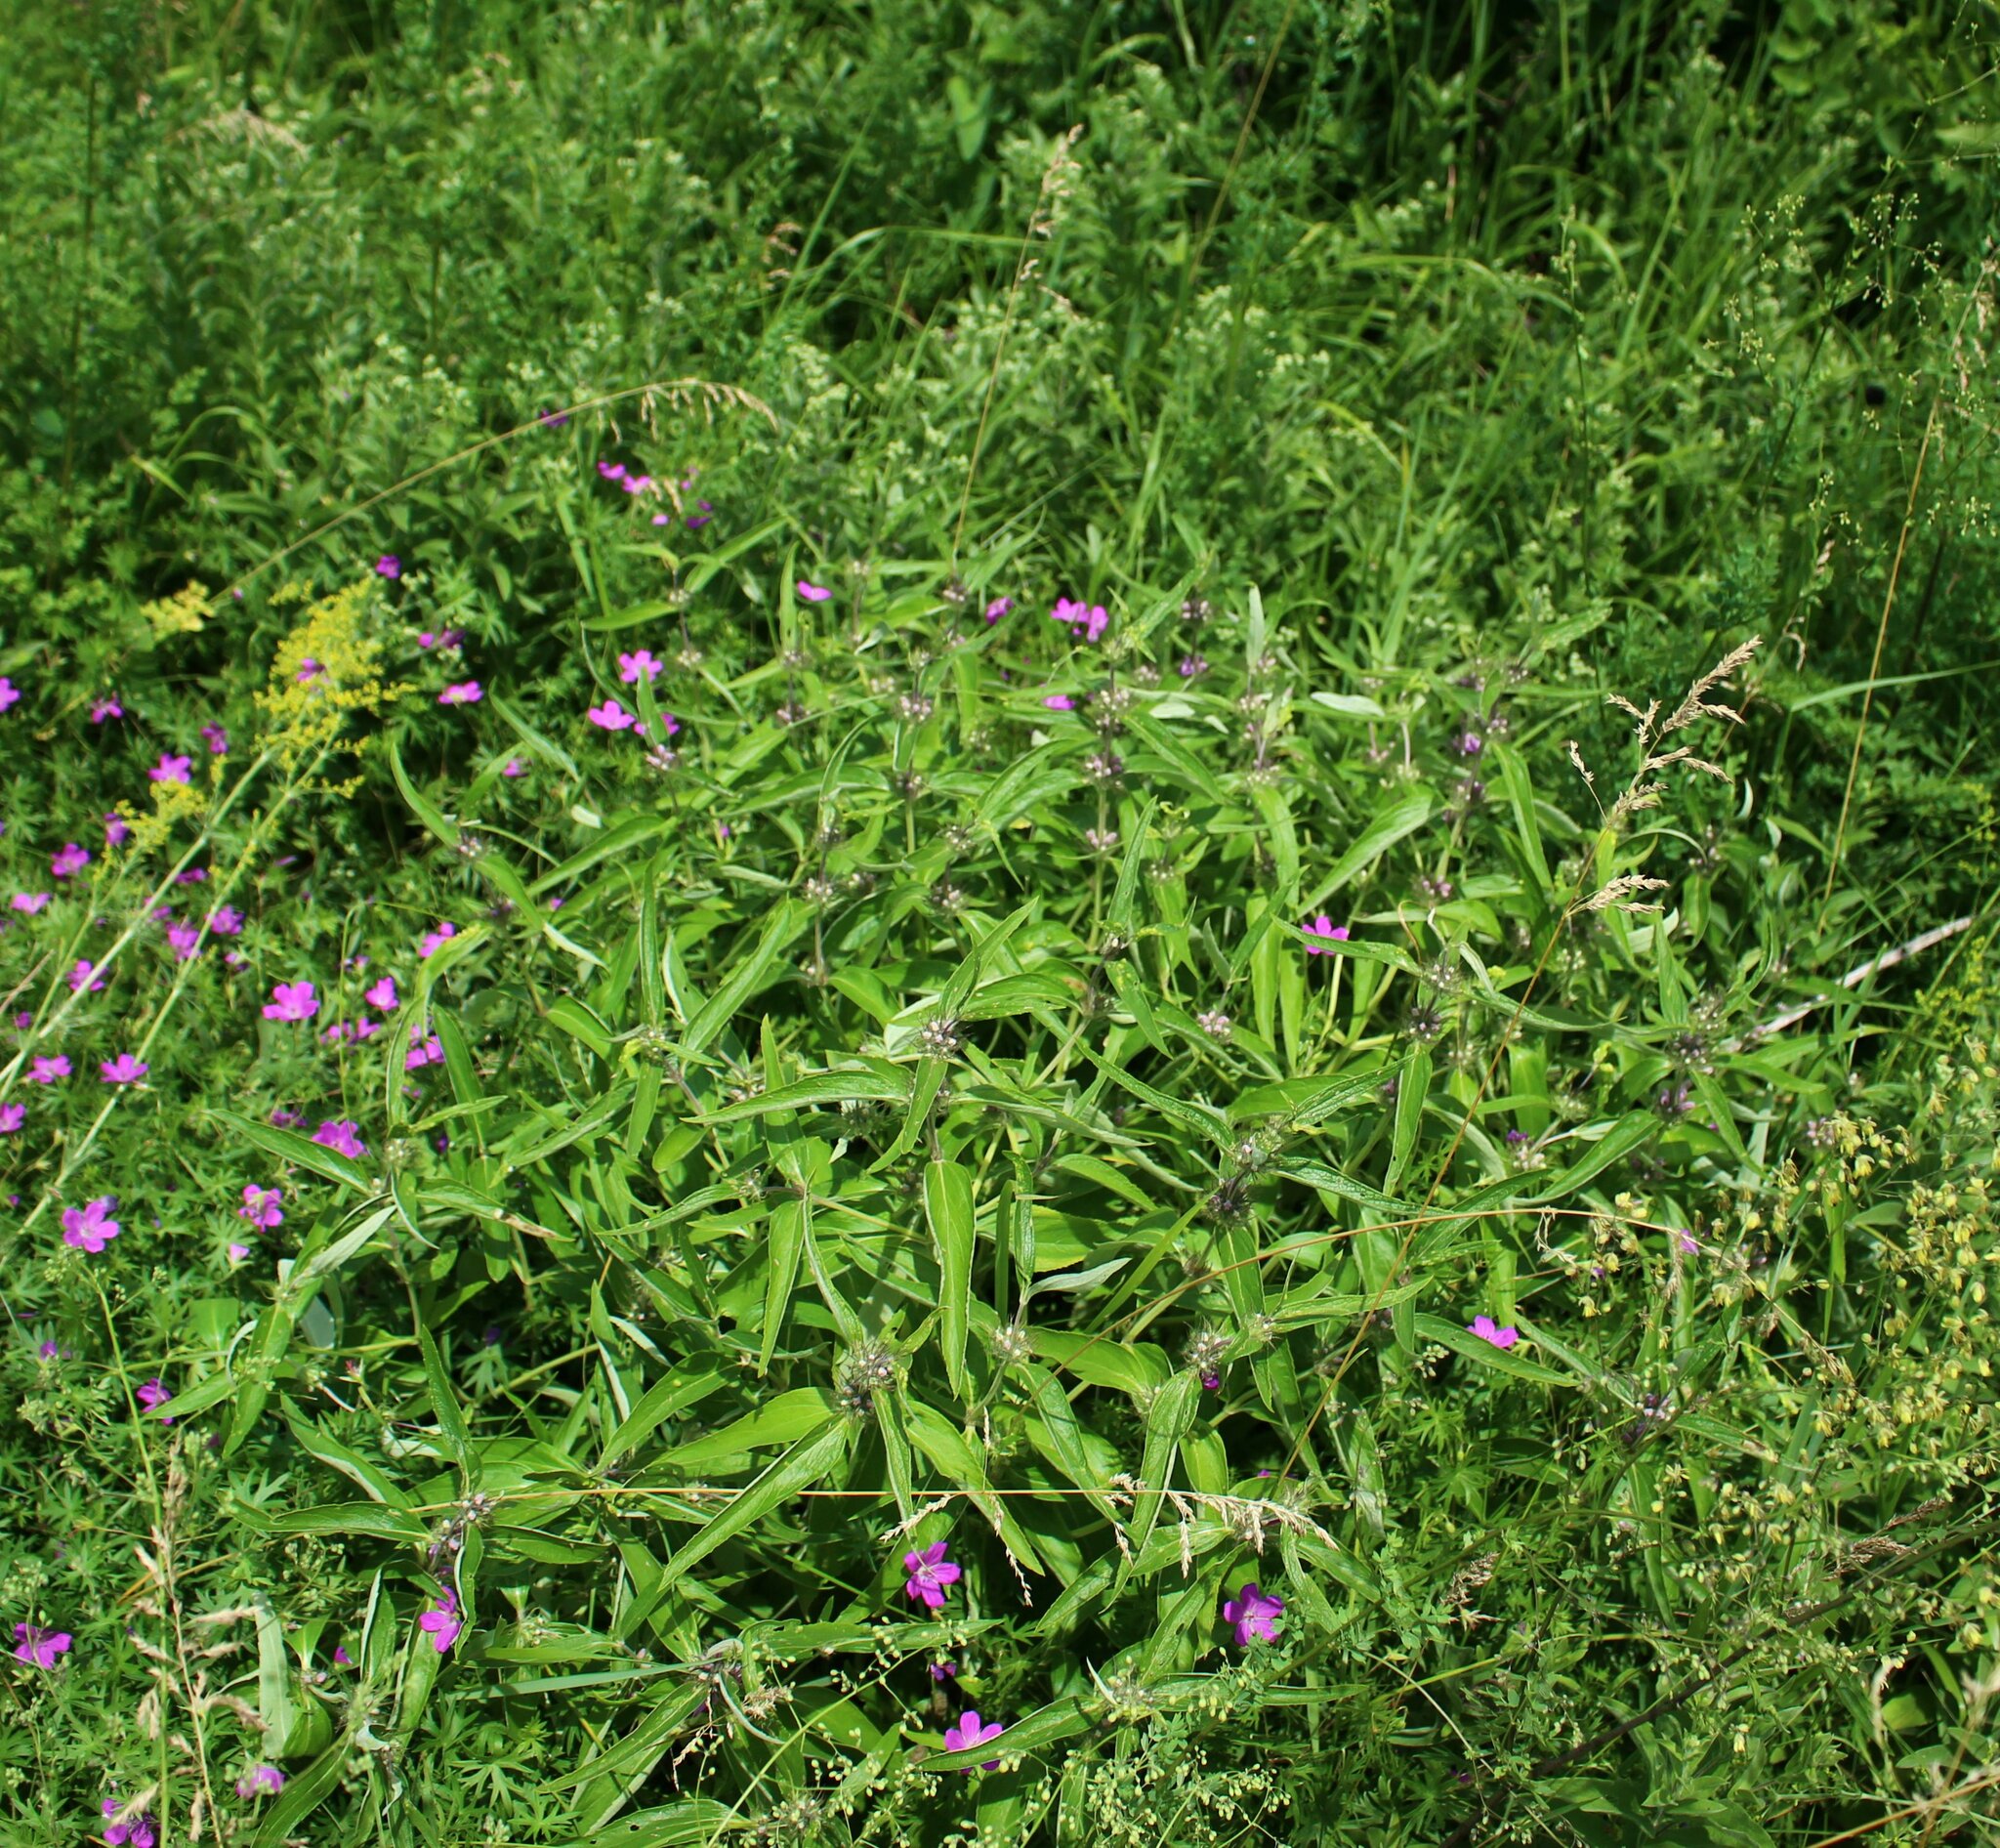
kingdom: Plantae
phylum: Tracheophyta
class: Magnoliopsida
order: Lamiales
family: Lamiaceae
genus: Phlomis
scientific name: Phlomis herba-venti
